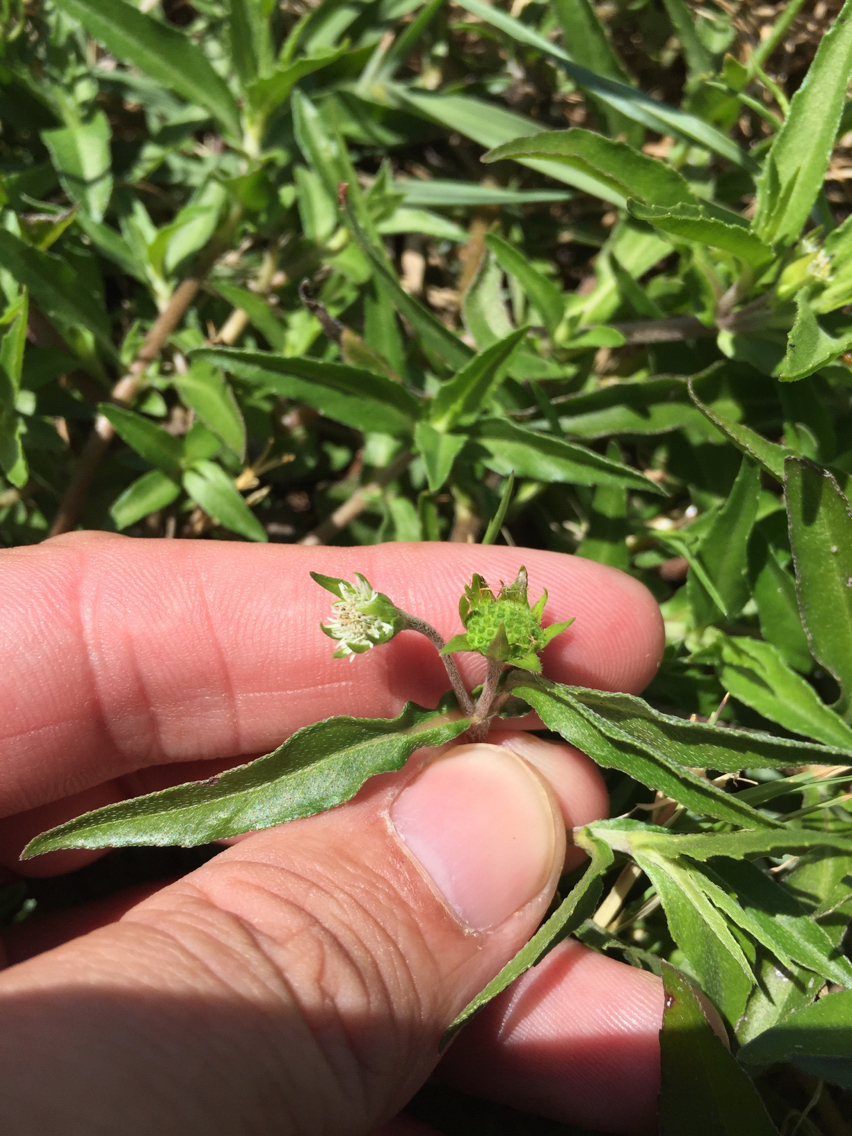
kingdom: Plantae
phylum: Tracheophyta
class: Magnoliopsida
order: Asterales
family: Asteraceae
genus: Eclipta
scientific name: Eclipta prostrata
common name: False daisy
